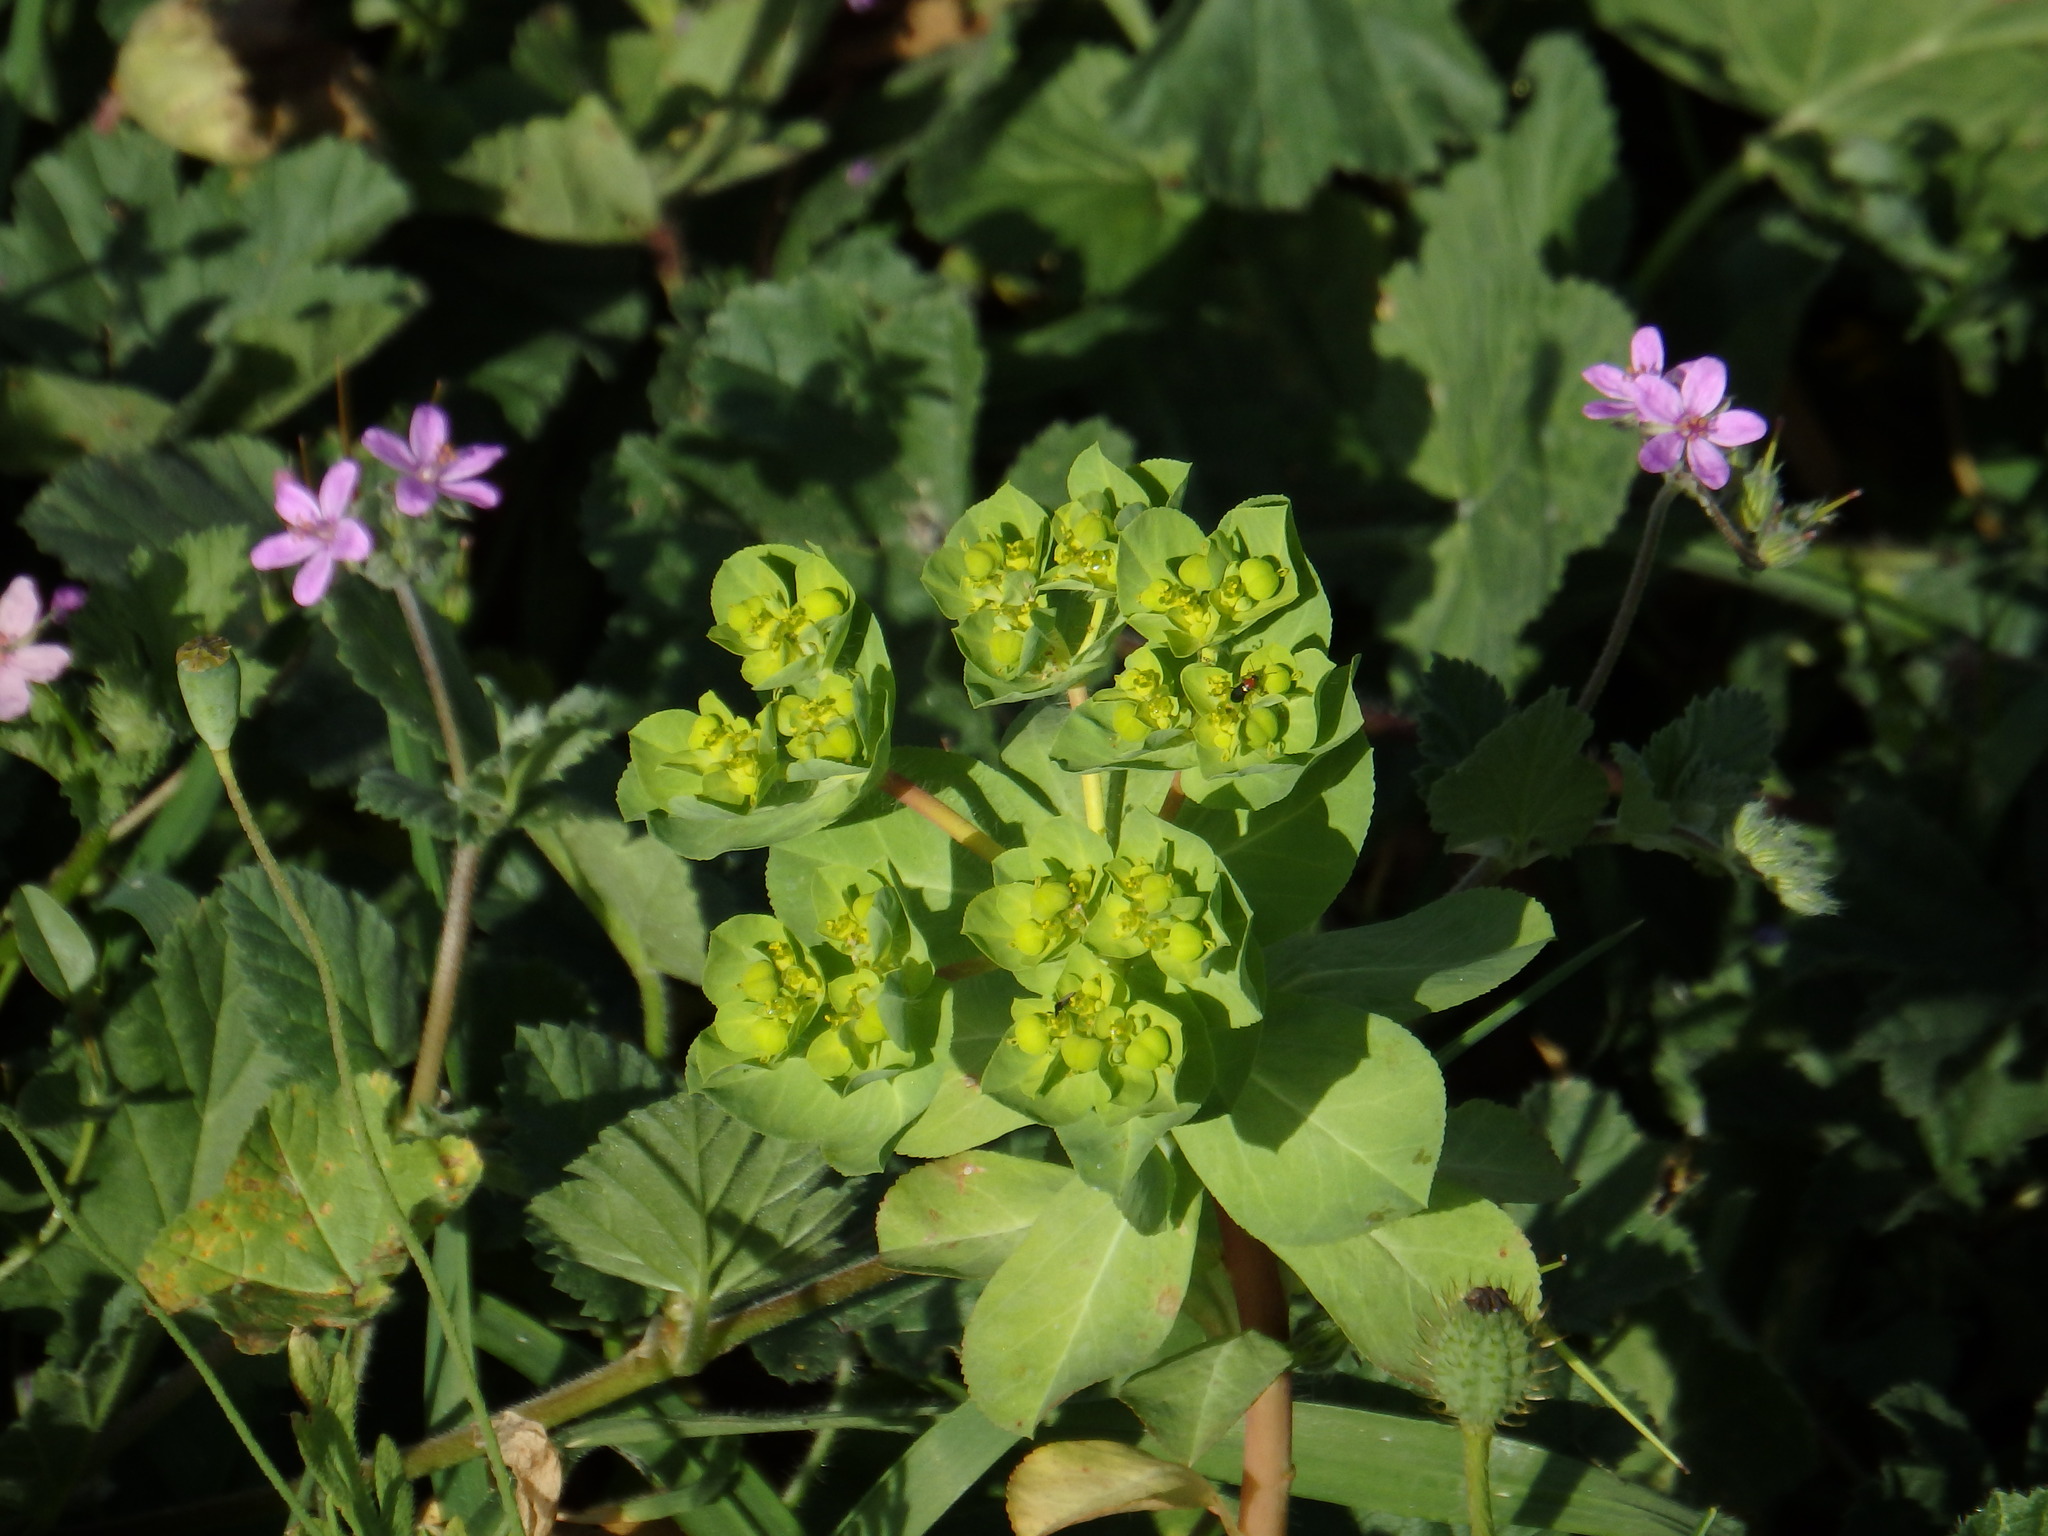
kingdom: Plantae
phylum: Tracheophyta
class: Magnoliopsida
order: Malpighiales
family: Euphorbiaceae
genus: Euphorbia
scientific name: Euphorbia helioscopia
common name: Sun spurge
